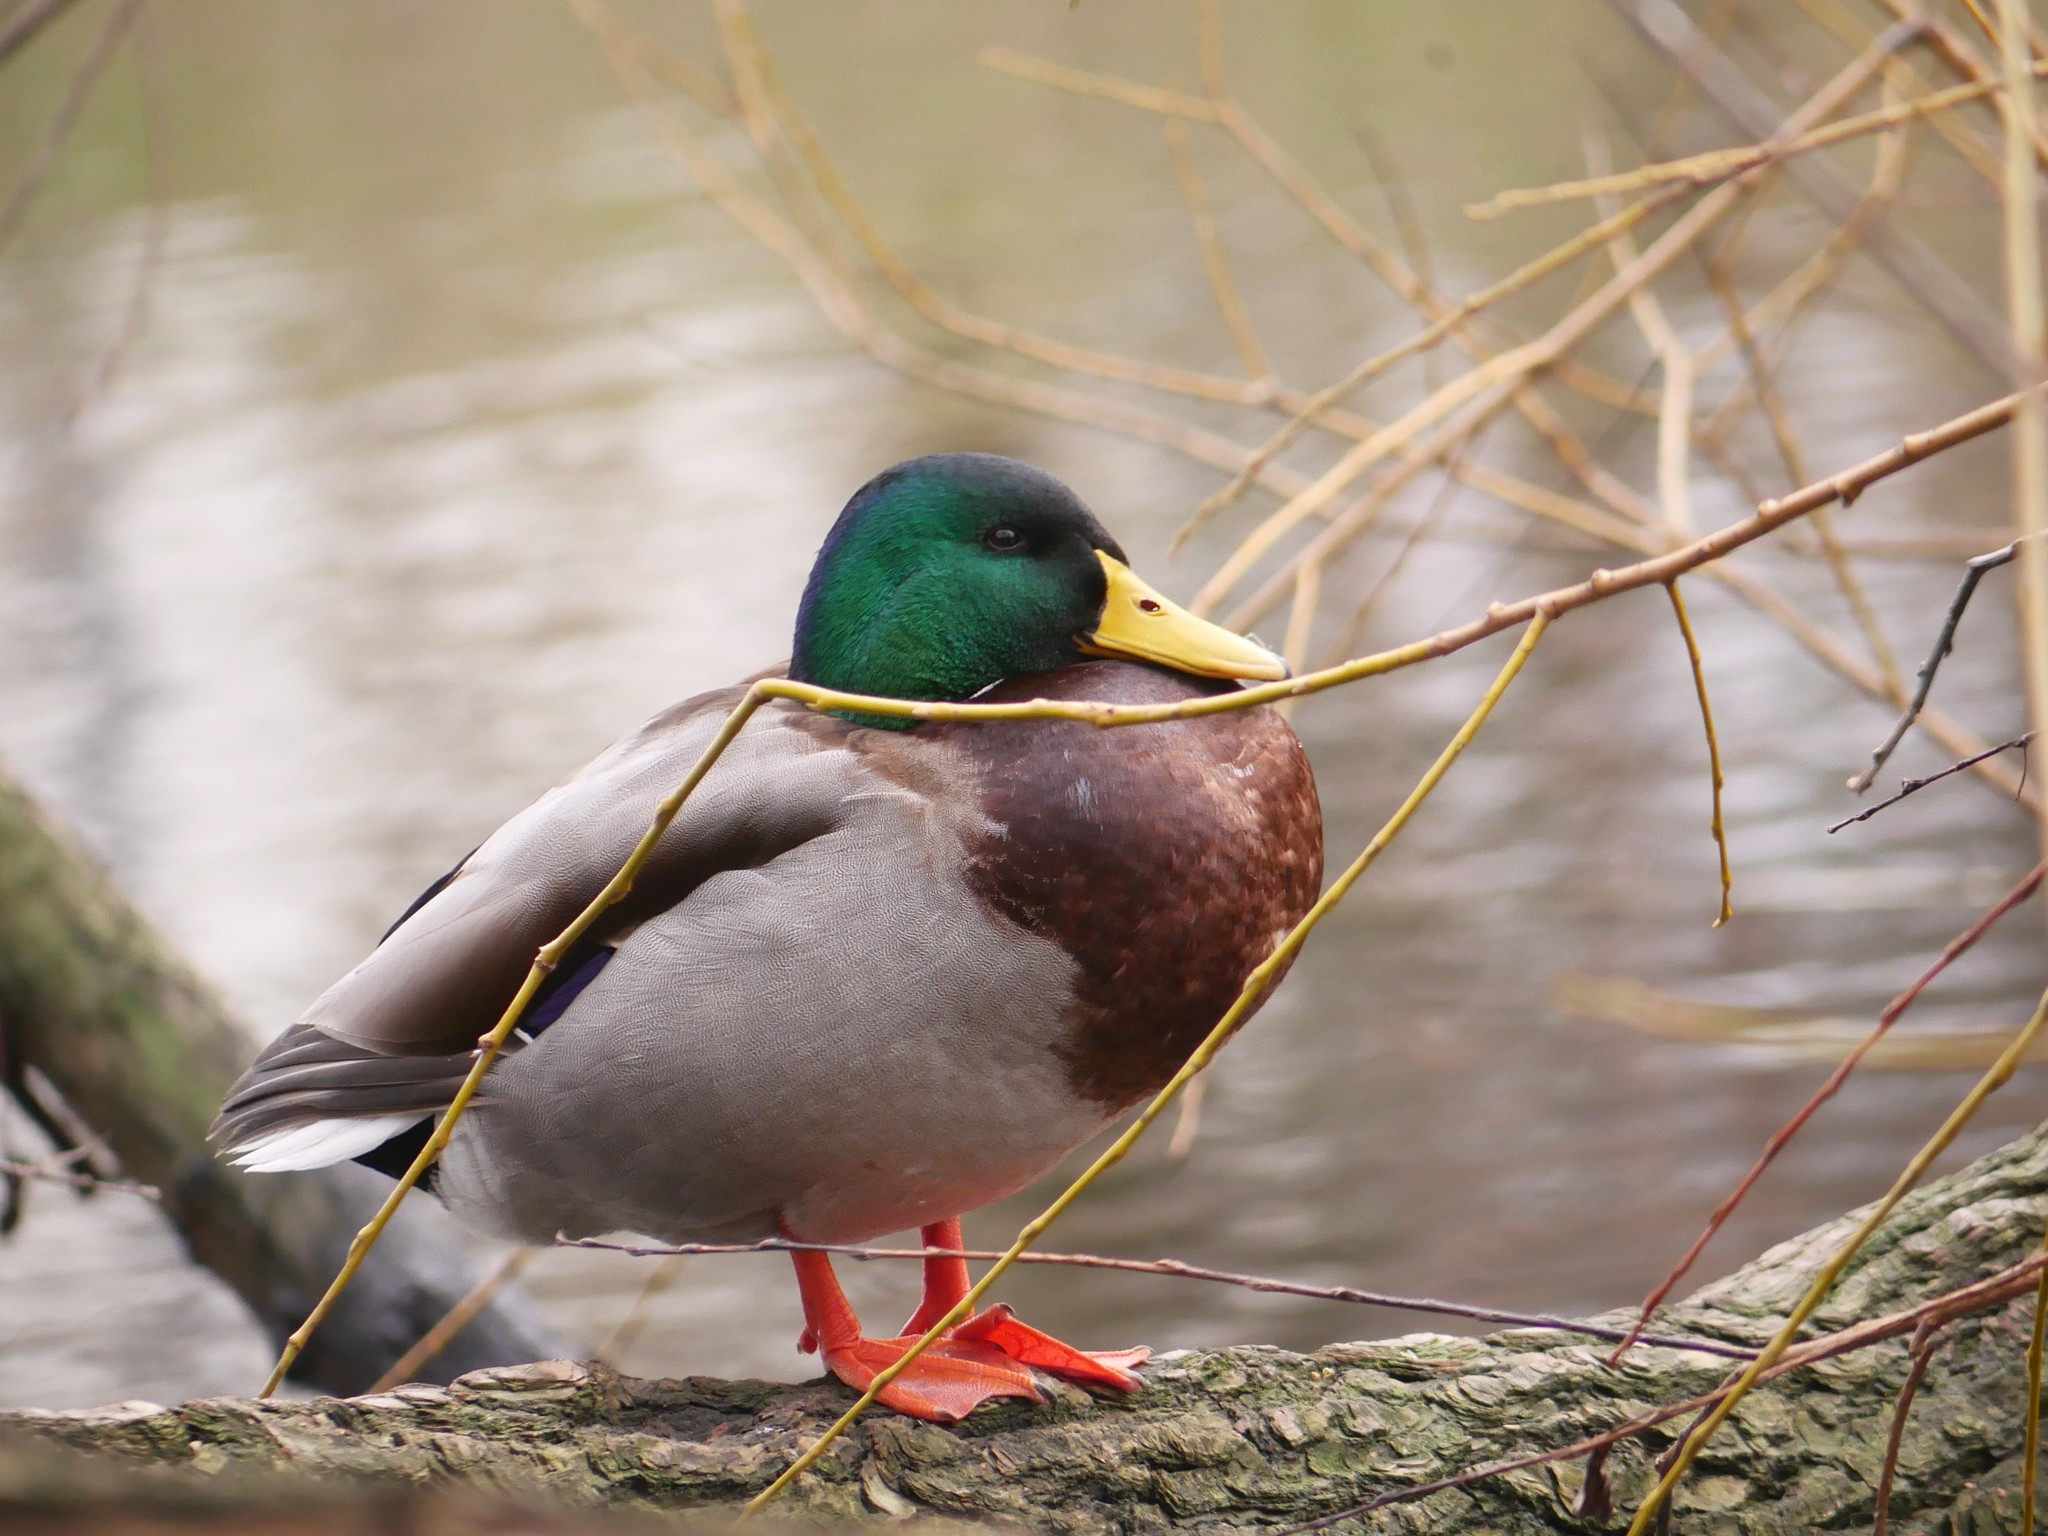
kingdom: Animalia
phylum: Chordata
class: Aves
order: Anseriformes
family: Anatidae
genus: Anas
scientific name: Anas platyrhynchos
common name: Mallard
